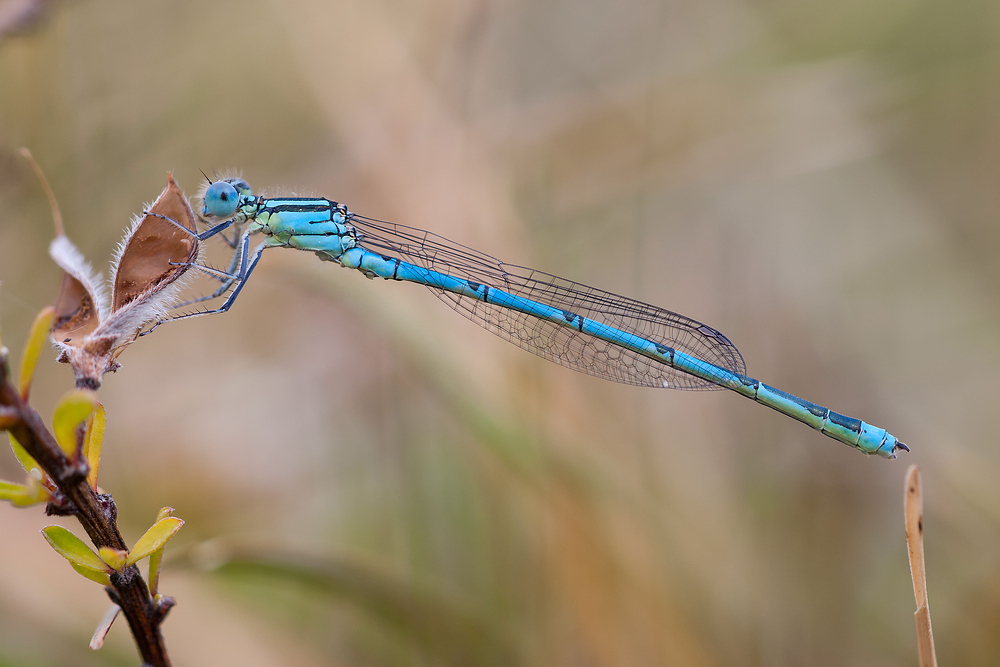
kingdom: Animalia
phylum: Arthropoda
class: Insecta
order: Odonata
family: Coenagrionidae
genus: Erythromma
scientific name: Erythromma lindenii
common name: Blue-eye
